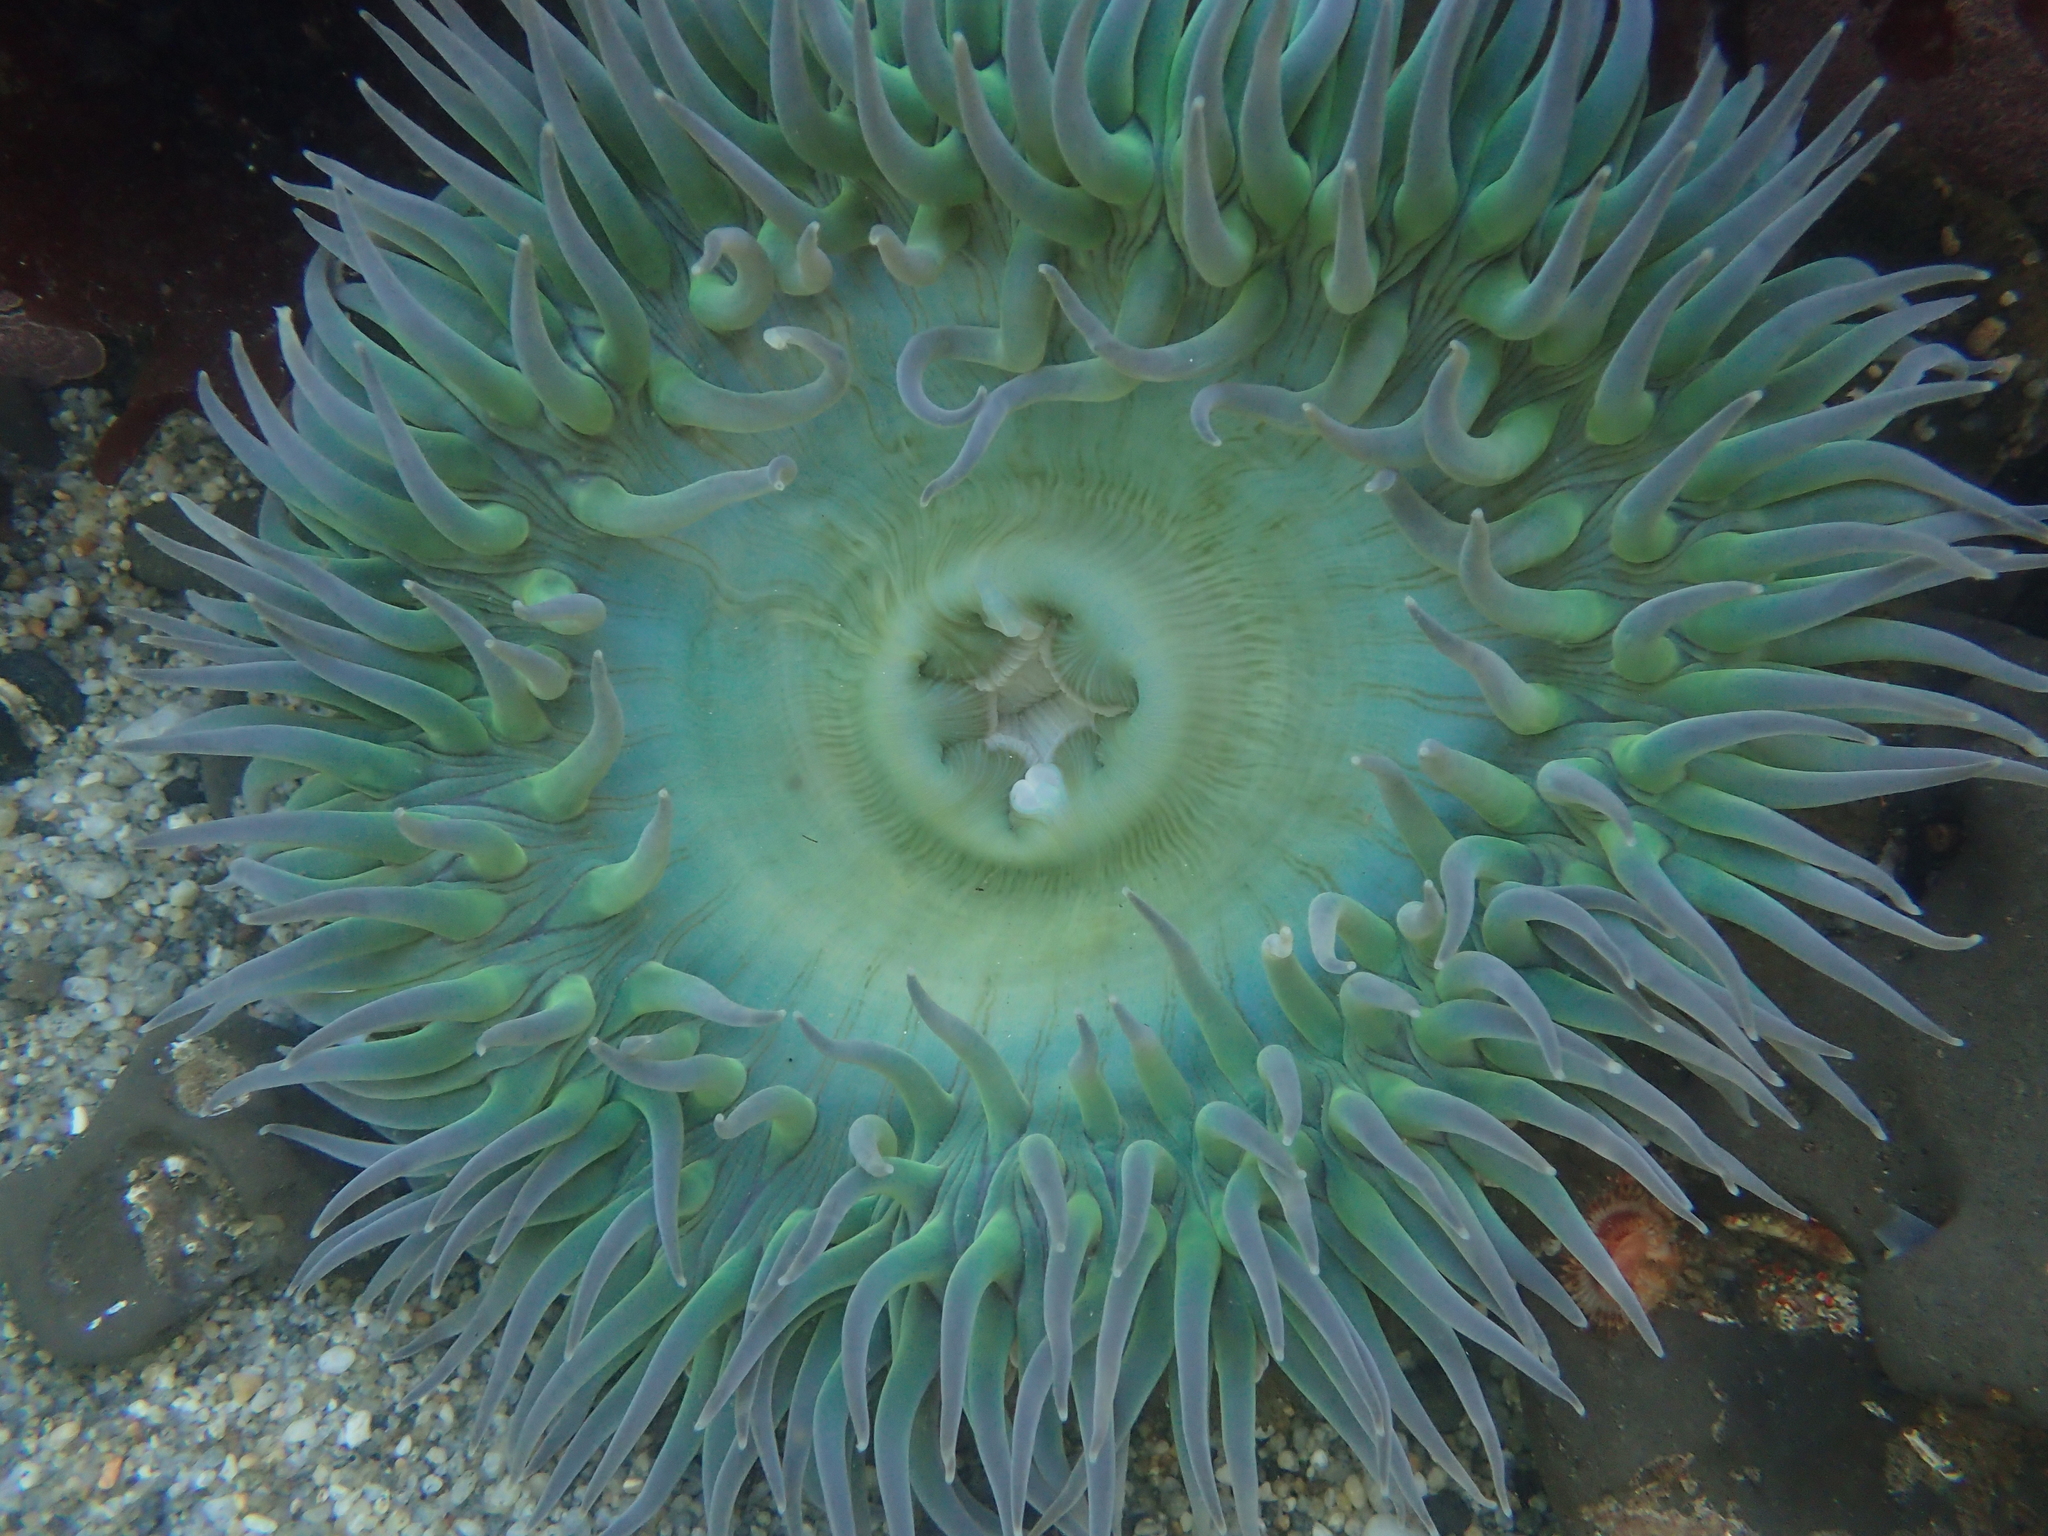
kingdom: Animalia
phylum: Cnidaria
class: Anthozoa
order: Actiniaria
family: Actiniidae
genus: Anthopleura
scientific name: Anthopleura xanthogrammica
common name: Giant green anemone
